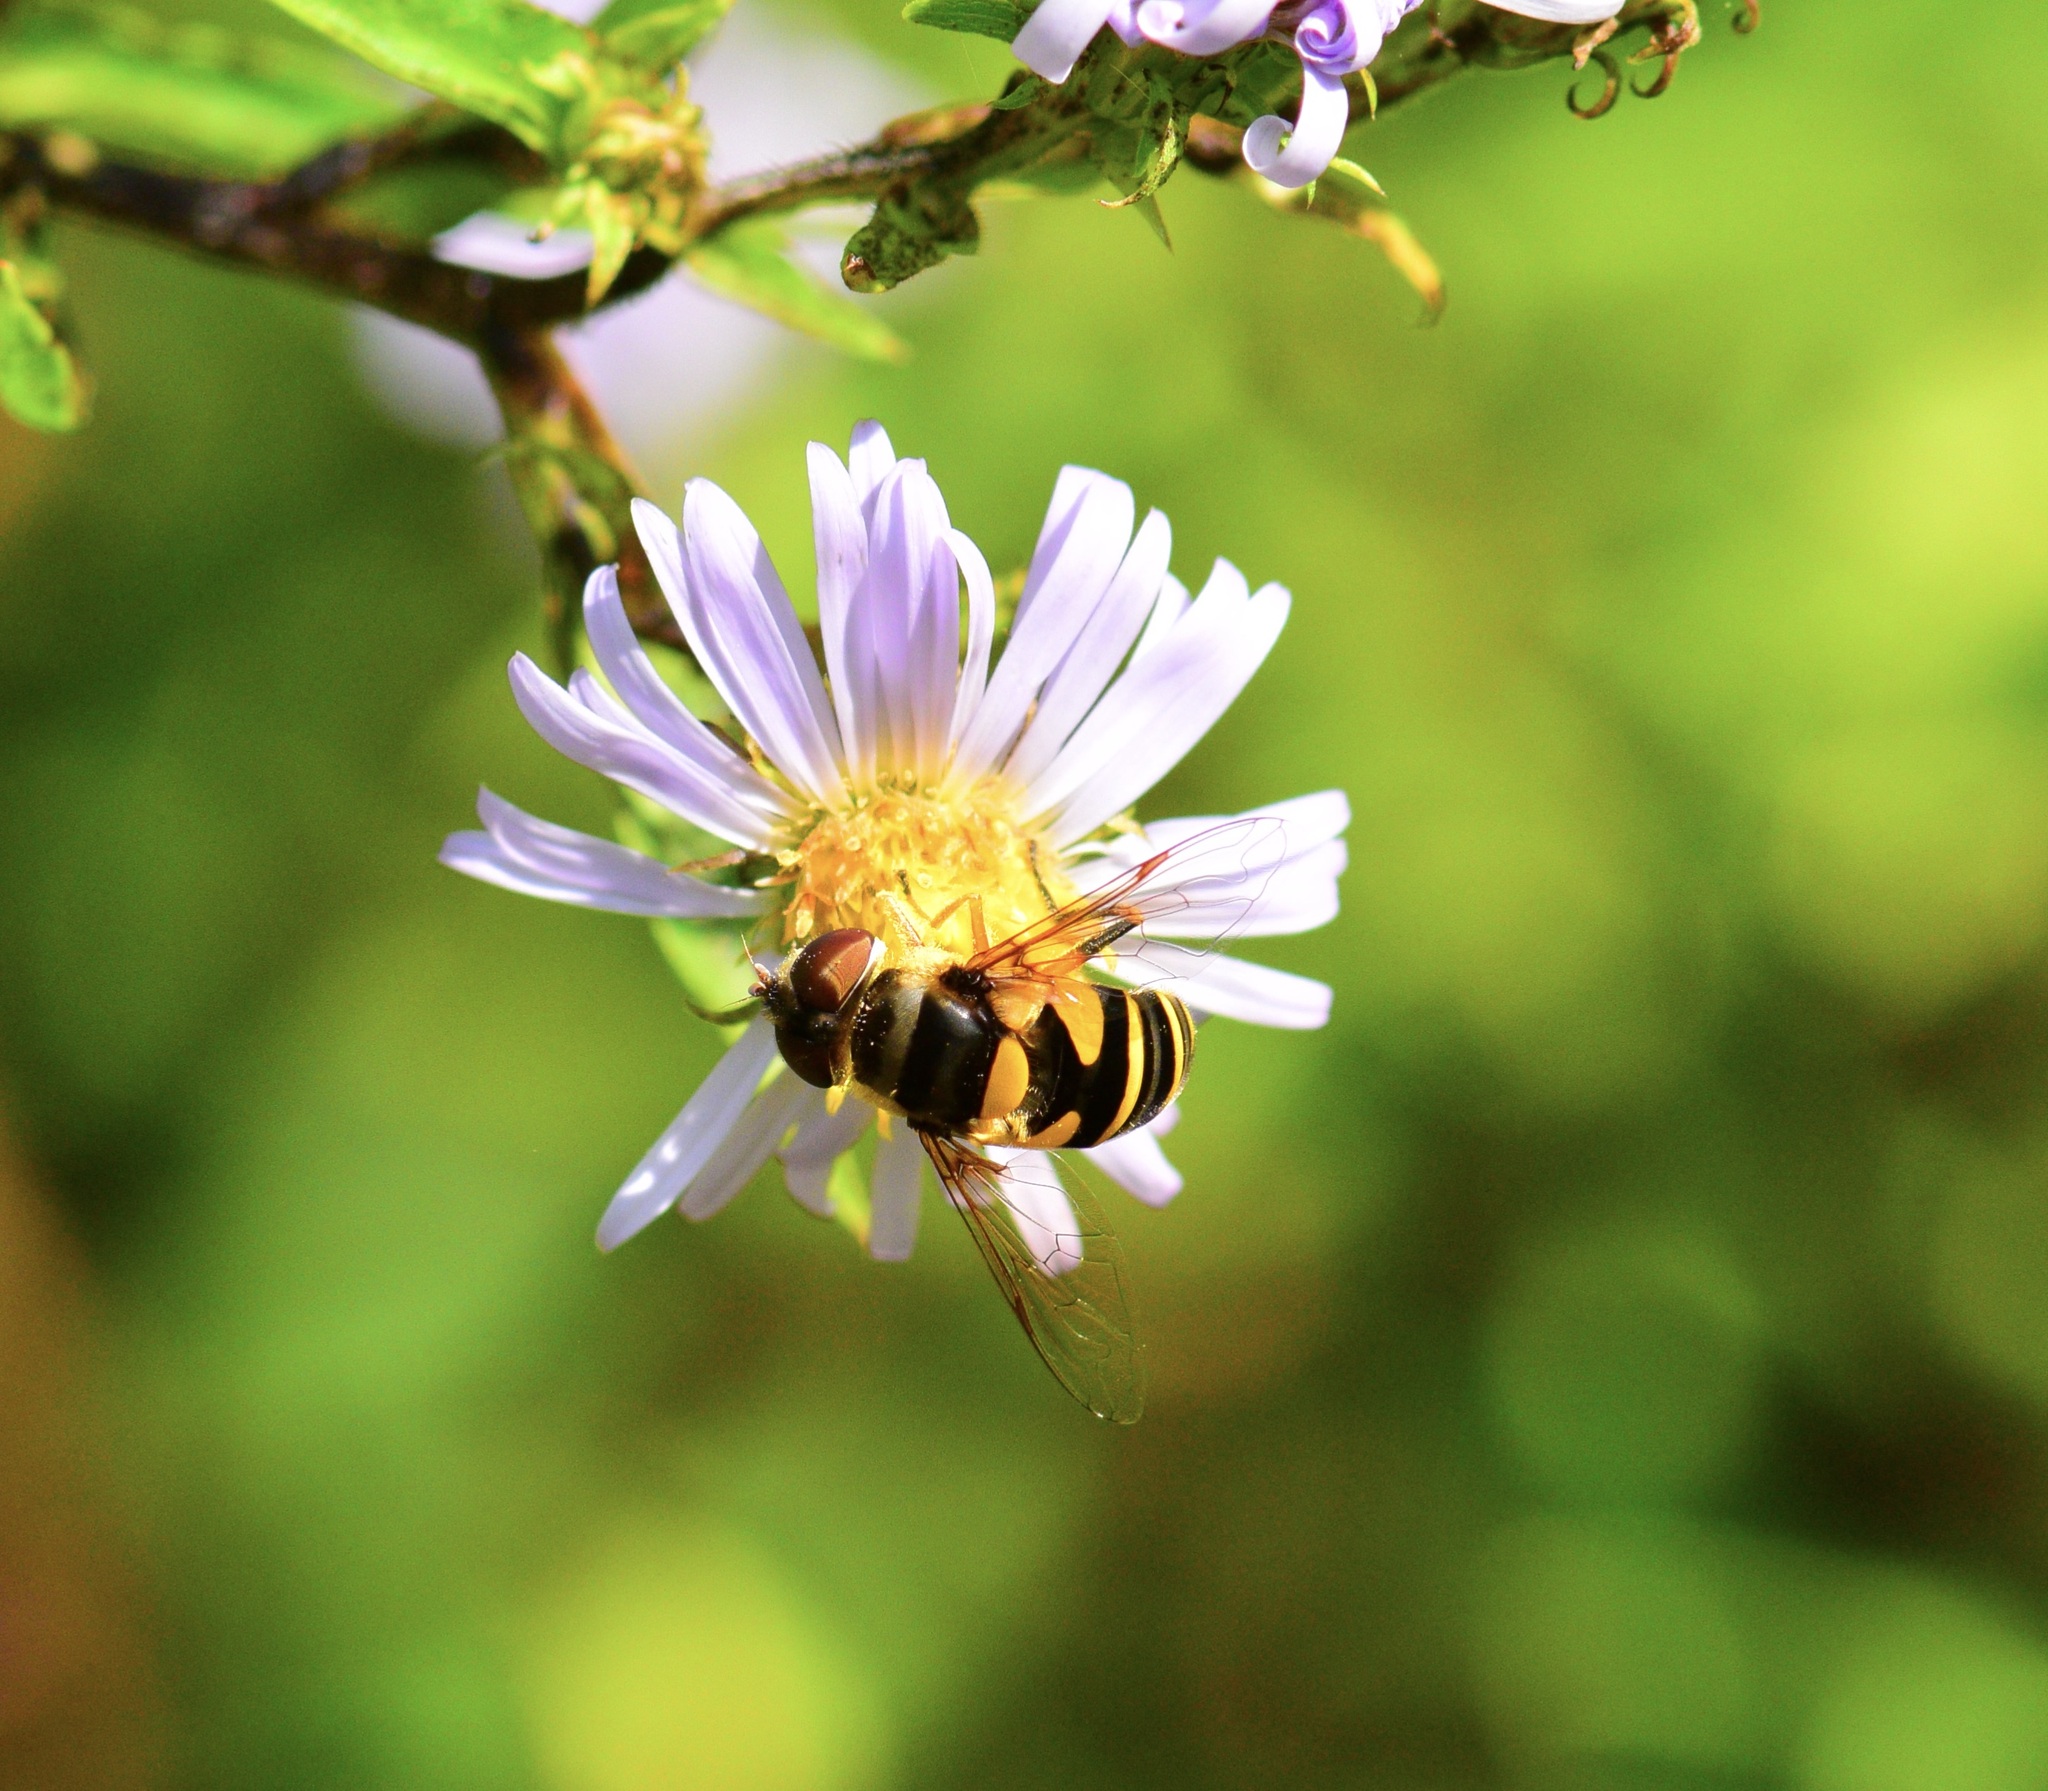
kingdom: Animalia
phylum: Arthropoda
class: Insecta
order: Diptera
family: Syrphidae
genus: Eristalis
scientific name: Eristalis transversa
